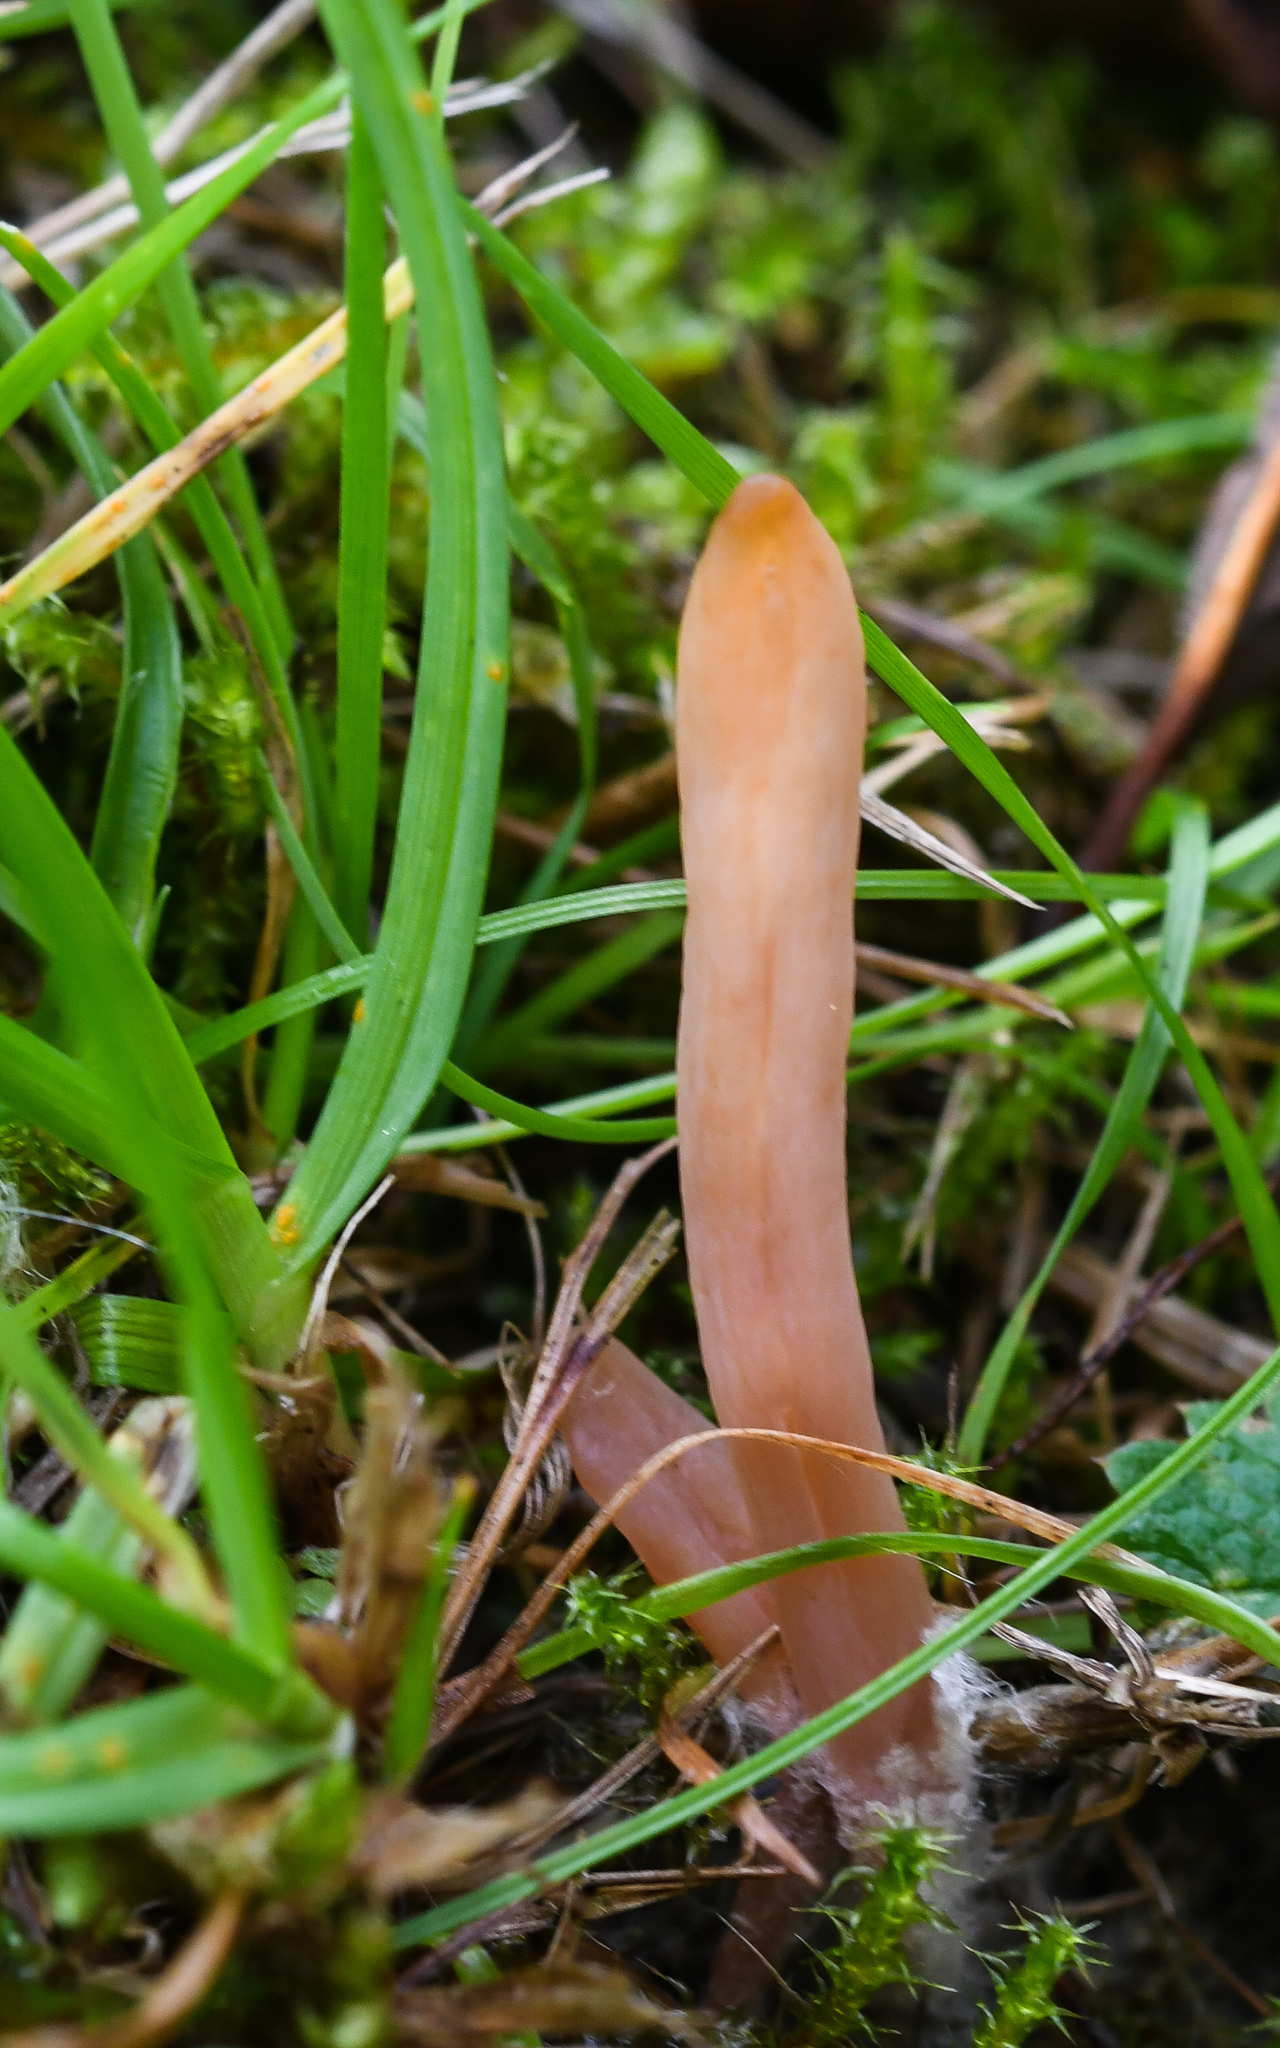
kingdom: Fungi
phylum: Basidiomycota
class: Agaricomycetes
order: Agaricales
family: Clavariaceae
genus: Clavaria
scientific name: Clavaria incarnata
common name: Skinny club
